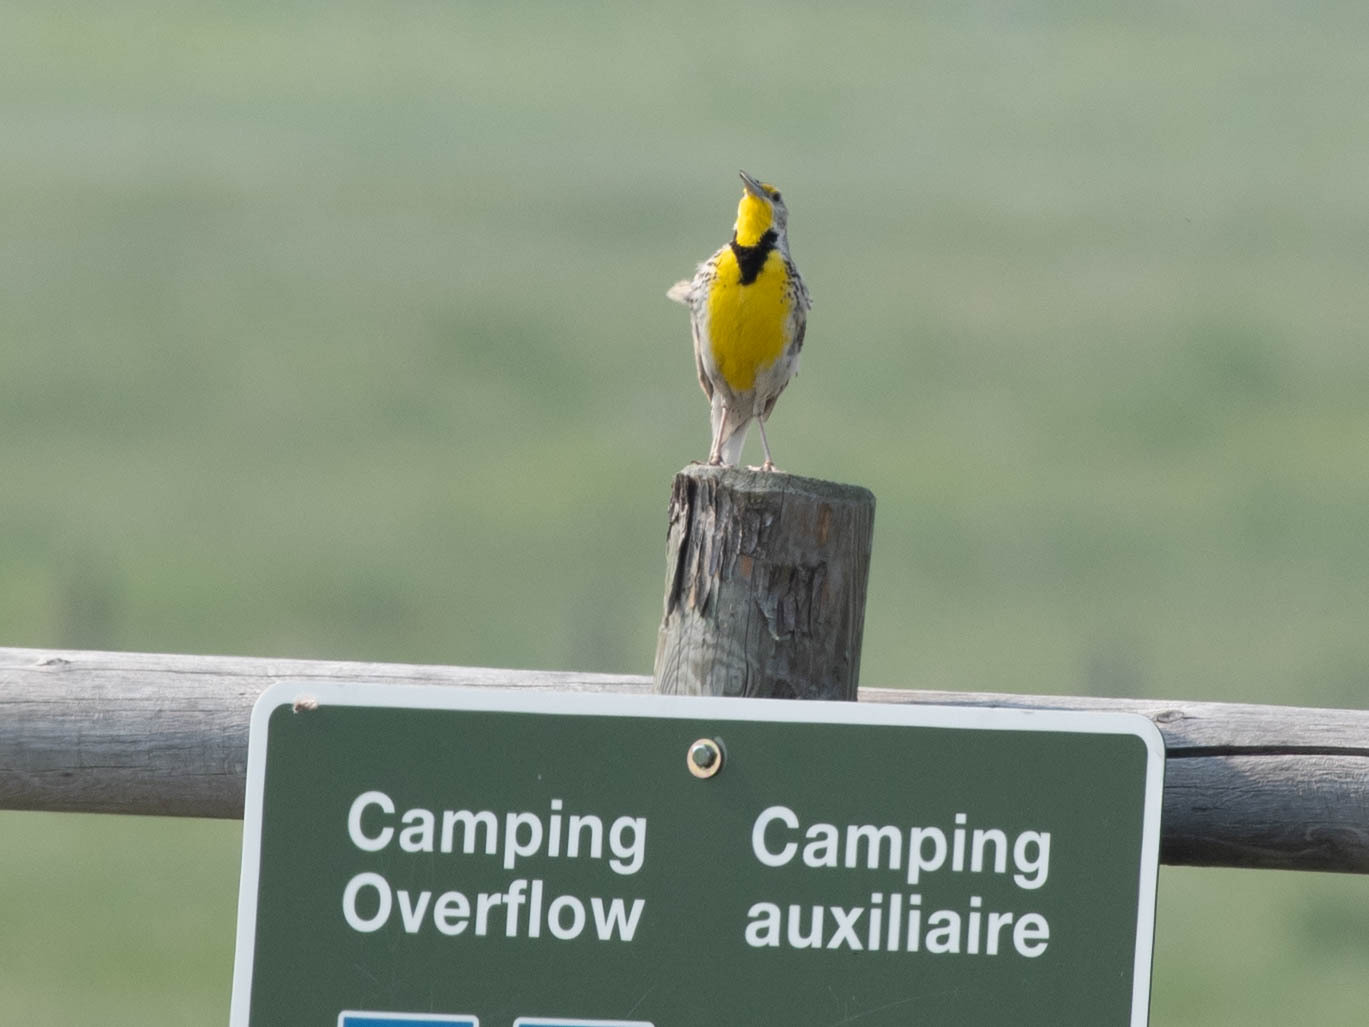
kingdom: Animalia
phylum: Chordata
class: Aves
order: Passeriformes
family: Icteridae
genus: Sturnella
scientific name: Sturnella neglecta
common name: Western meadowlark
